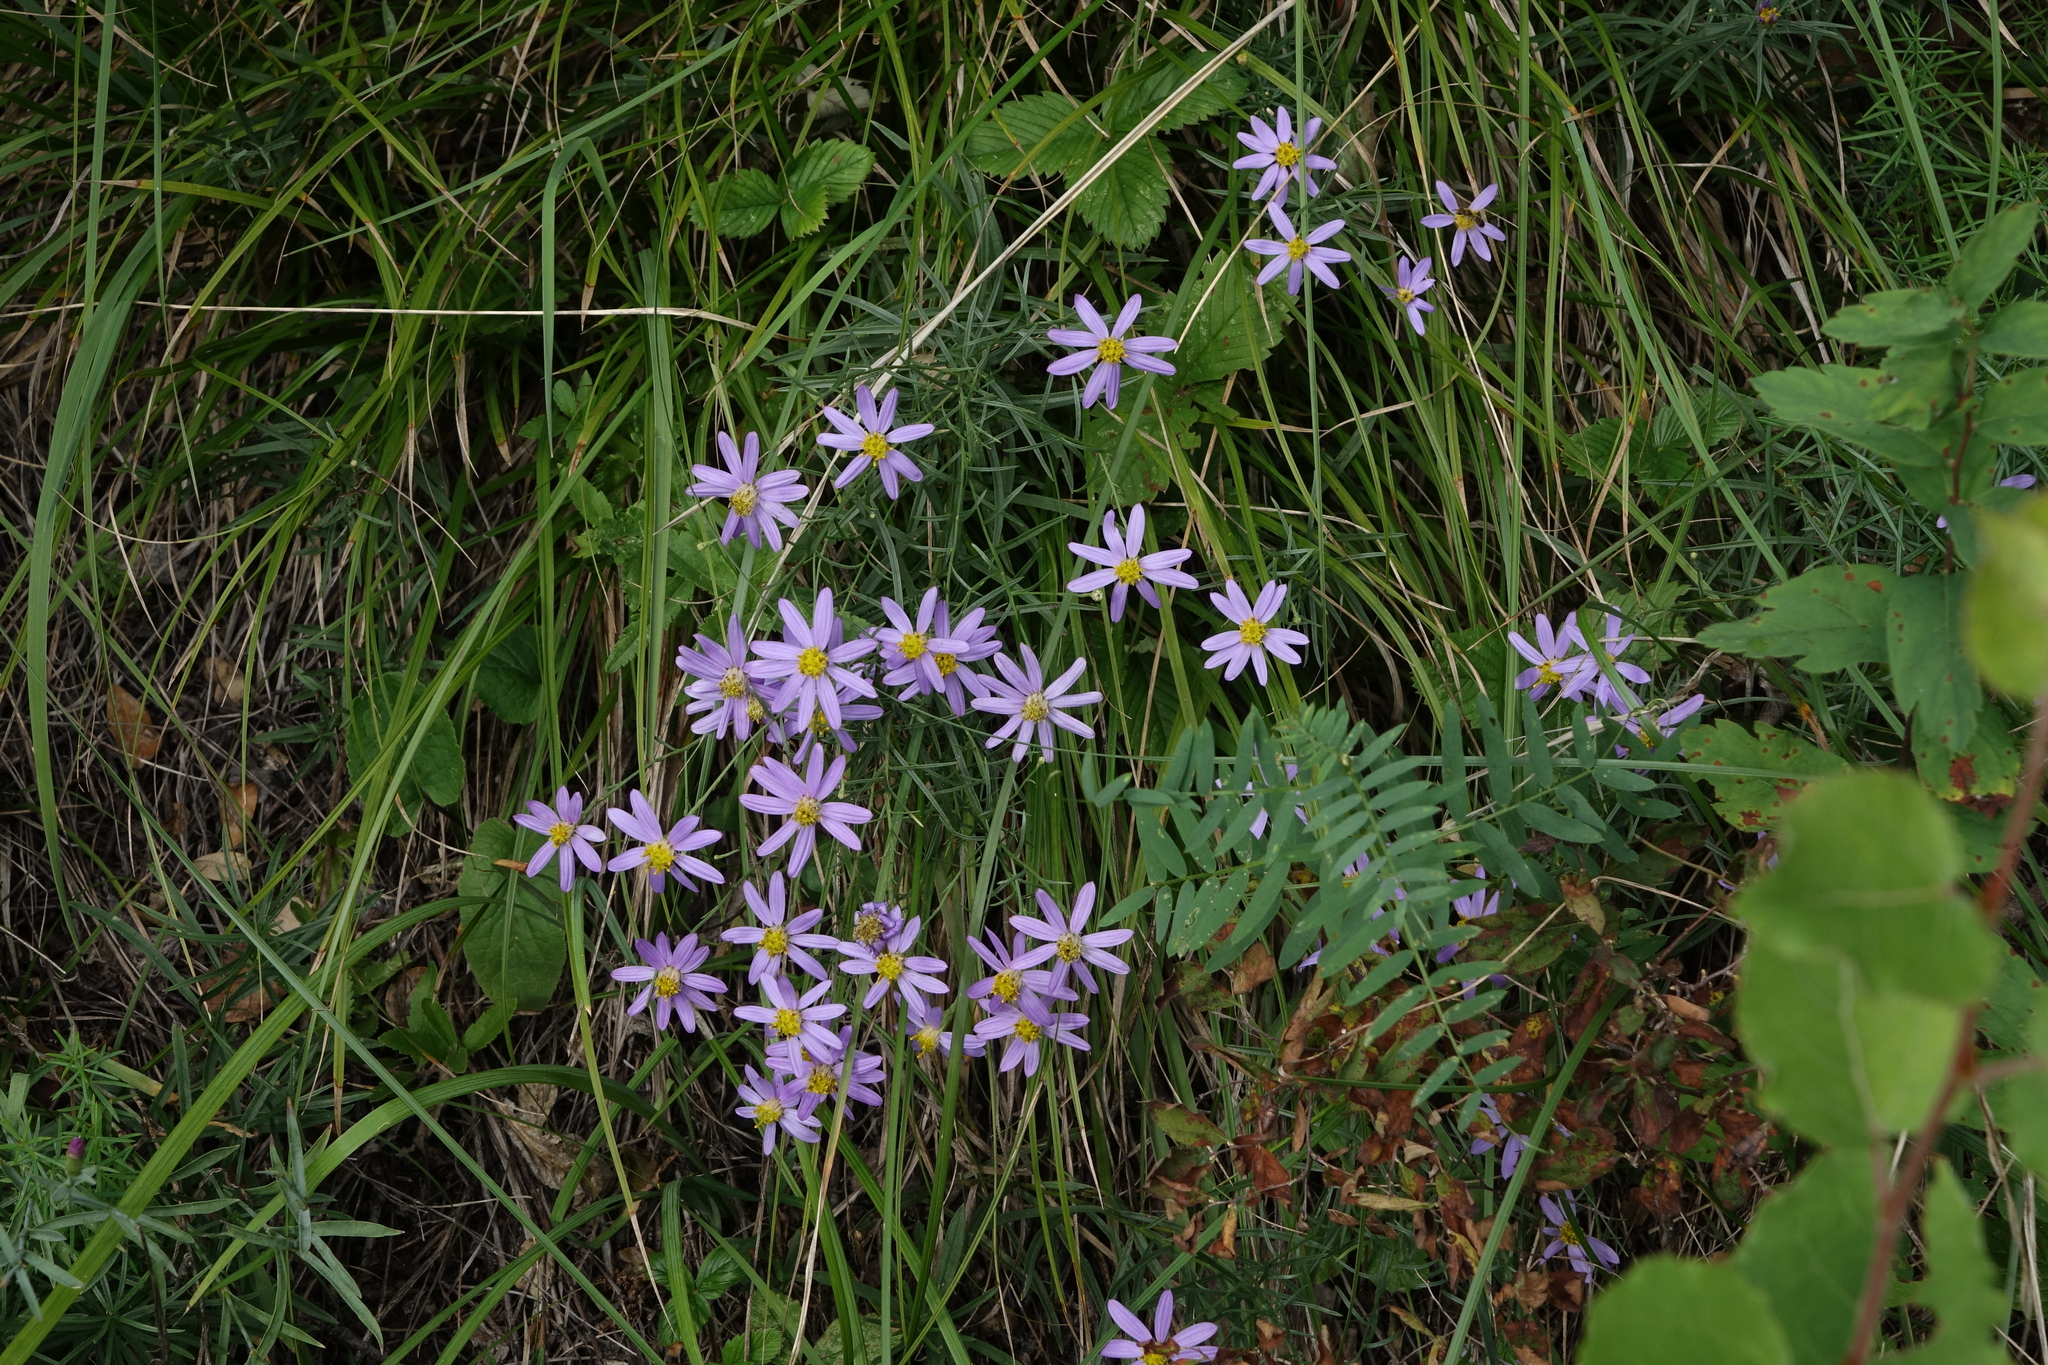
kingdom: Plantae
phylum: Tracheophyta
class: Magnoliopsida
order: Asterales
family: Asteraceae
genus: Galatella
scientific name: Galatella angustissima
